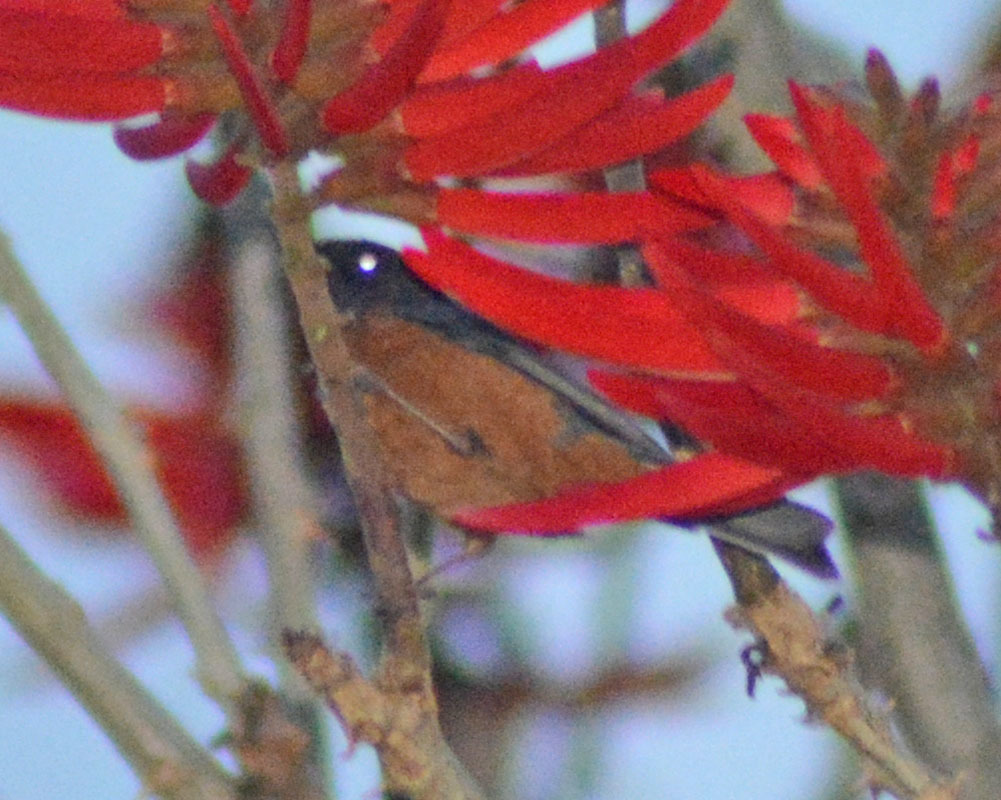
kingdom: Animalia
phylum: Chordata
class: Aves
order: Passeriformes
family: Thraupidae
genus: Diglossa
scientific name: Diglossa baritula
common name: Cinnamon-bellied flowerpiercer
